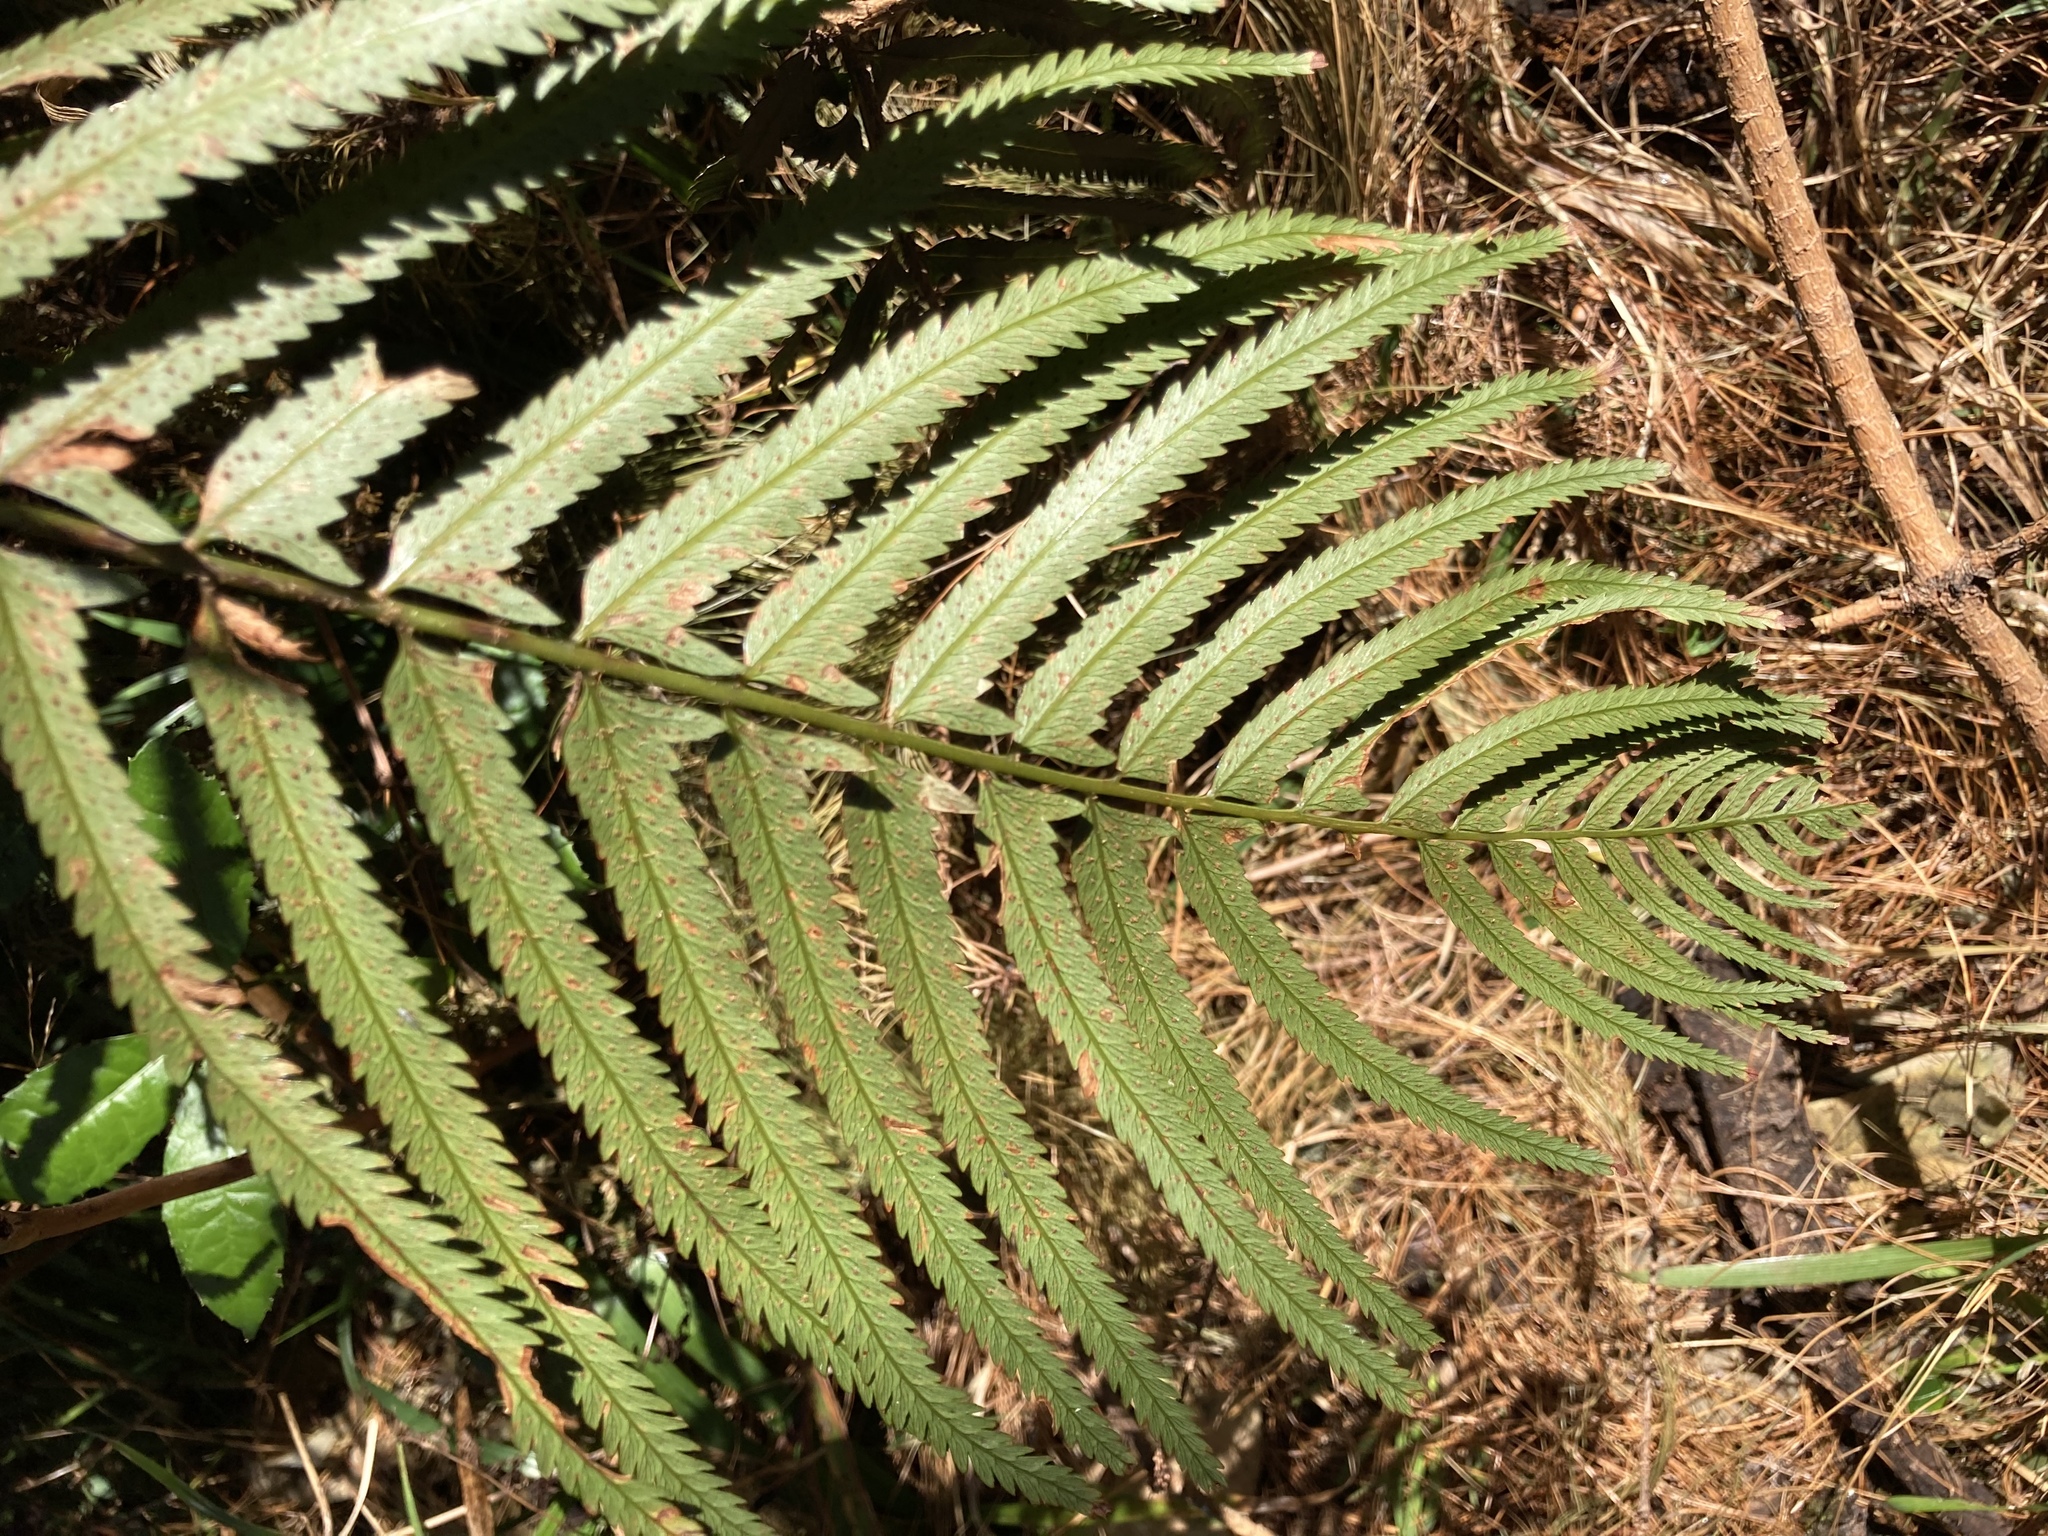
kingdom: Plantae
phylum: Tracheophyta
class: Polypodiopsida
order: Polypodiales
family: Dryopteridaceae
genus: Polystichum
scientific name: Polystichum macleae
